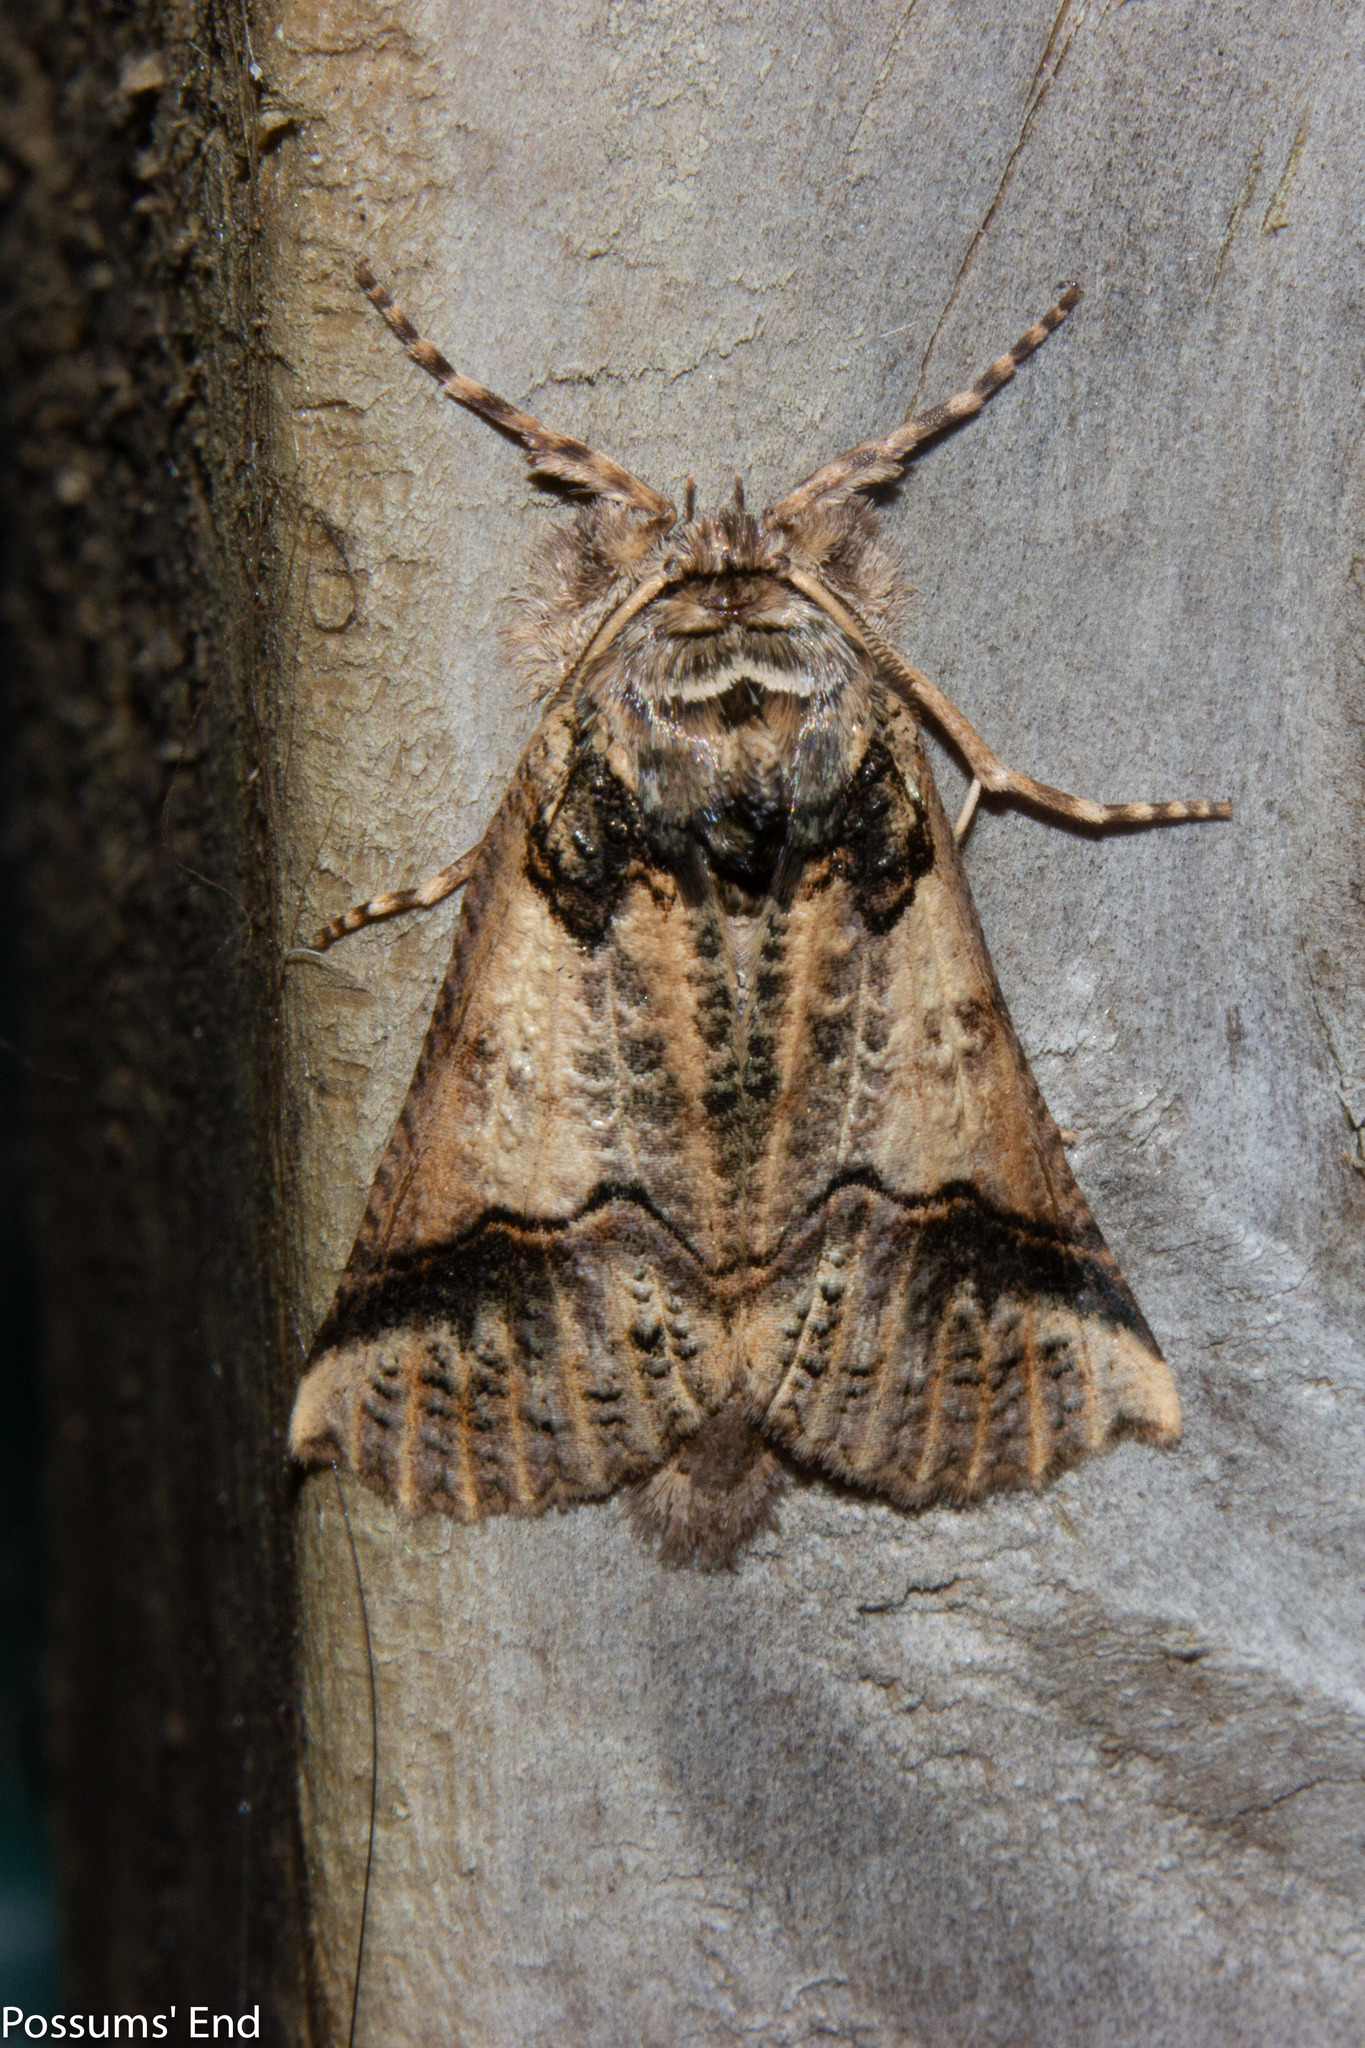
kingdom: Animalia
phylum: Arthropoda
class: Insecta
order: Lepidoptera
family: Geometridae
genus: Declana
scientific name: Declana
